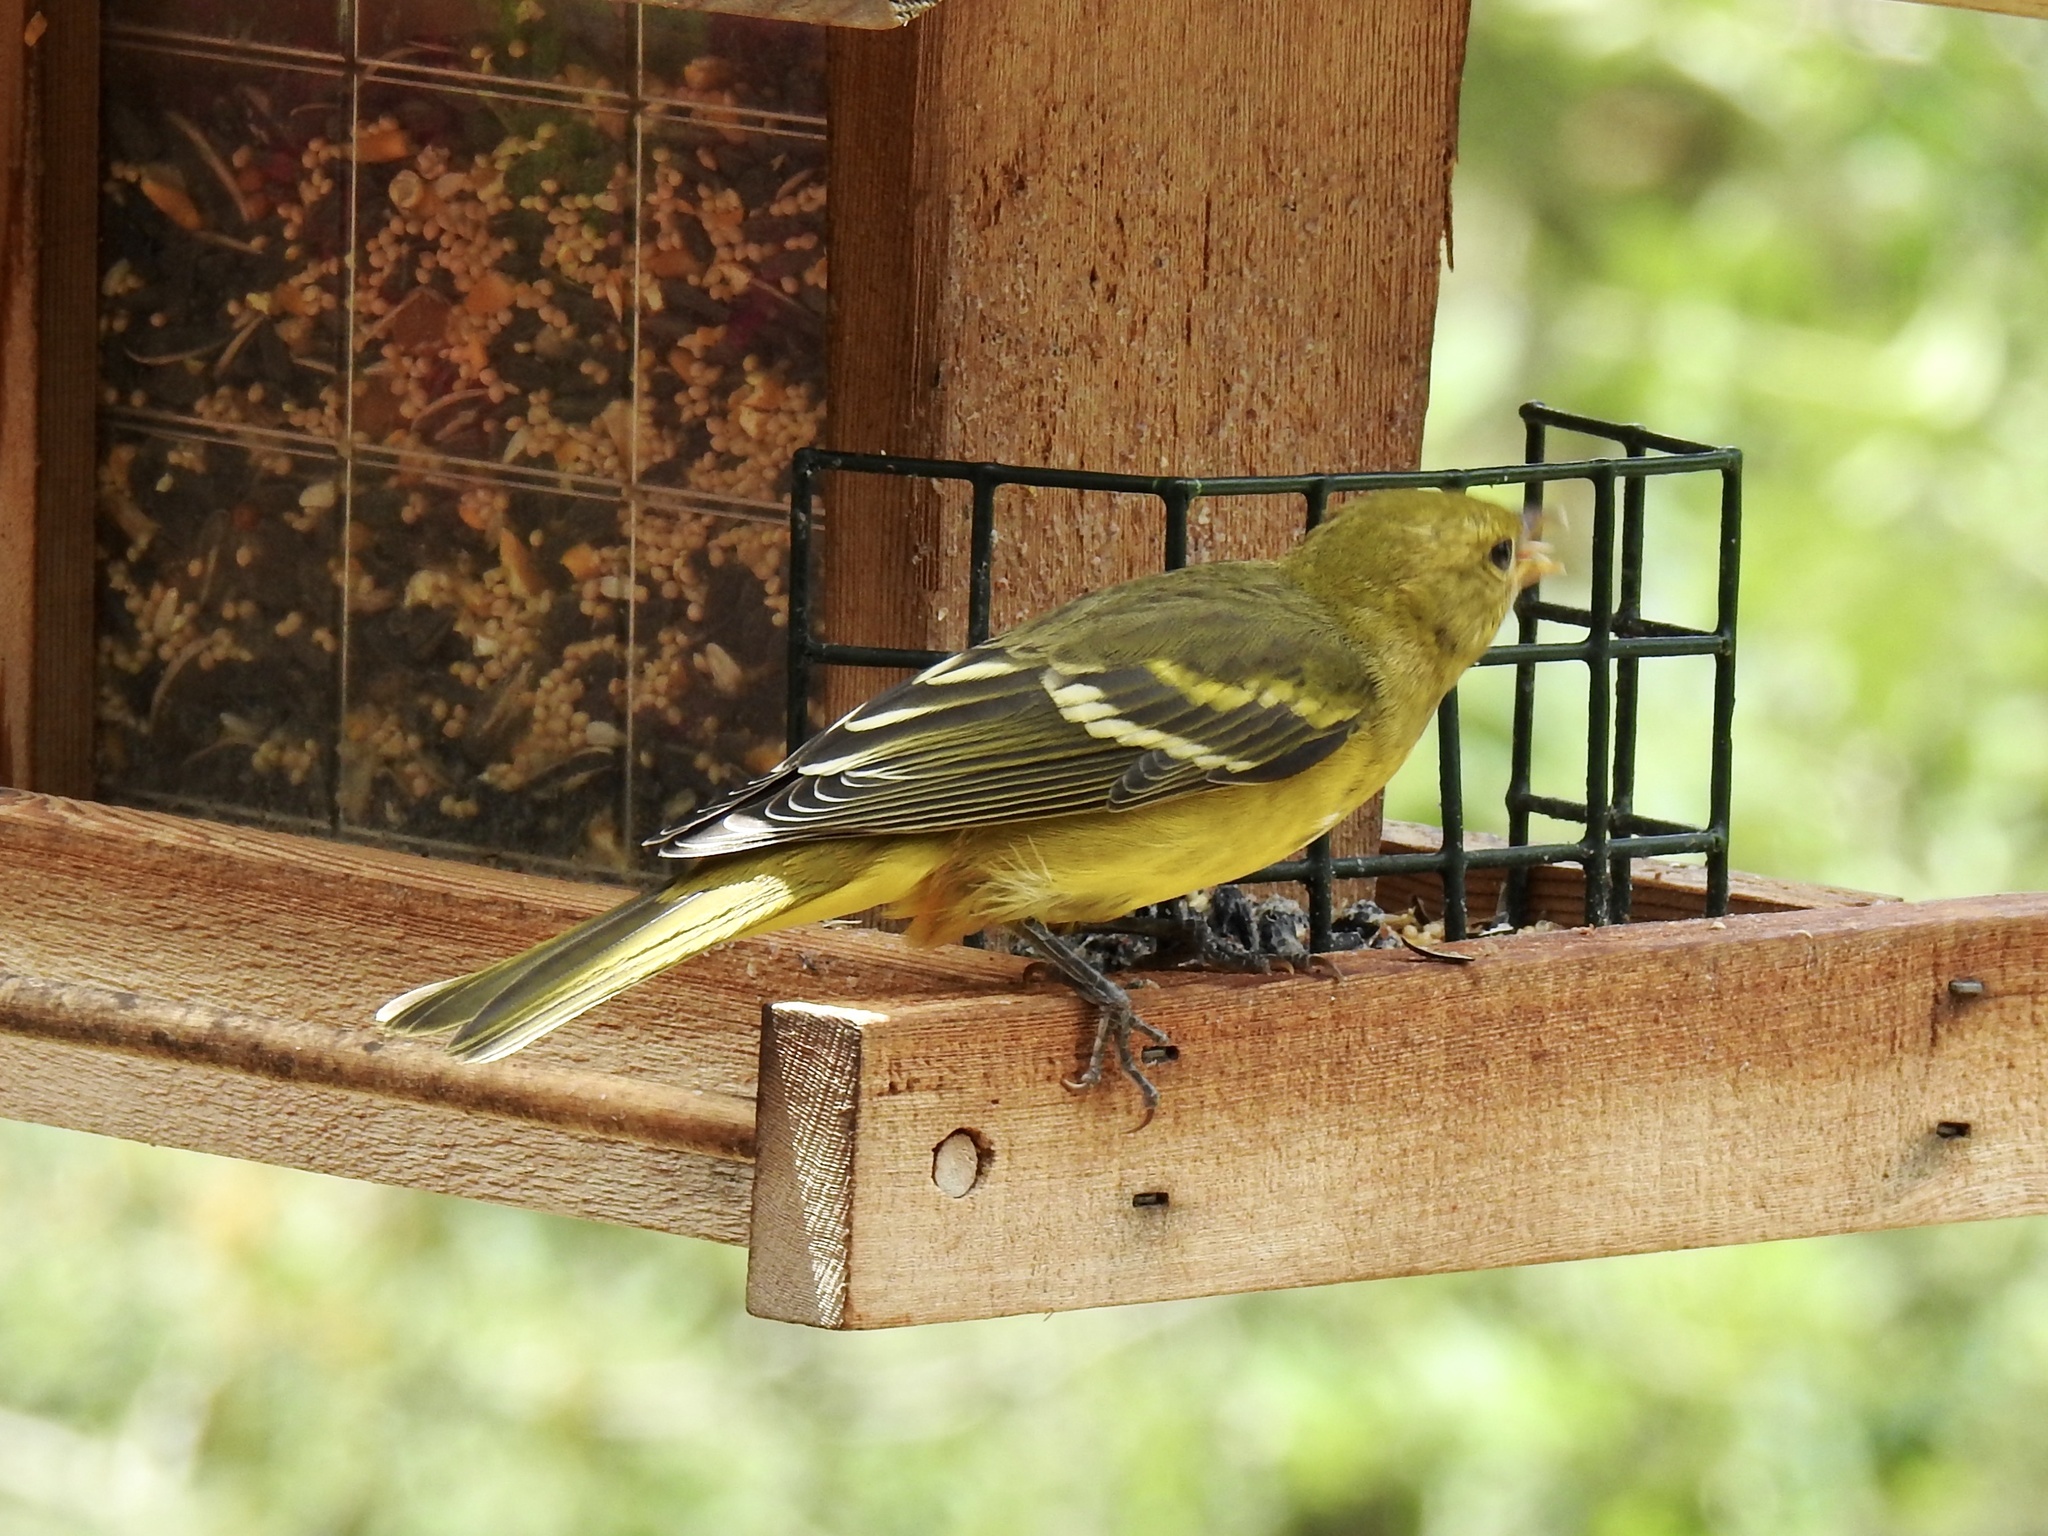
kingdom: Animalia
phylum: Chordata
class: Aves
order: Passeriformes
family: Cardinalidae
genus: Piranga
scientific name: Piranga ludoviciana
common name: Western tanager
